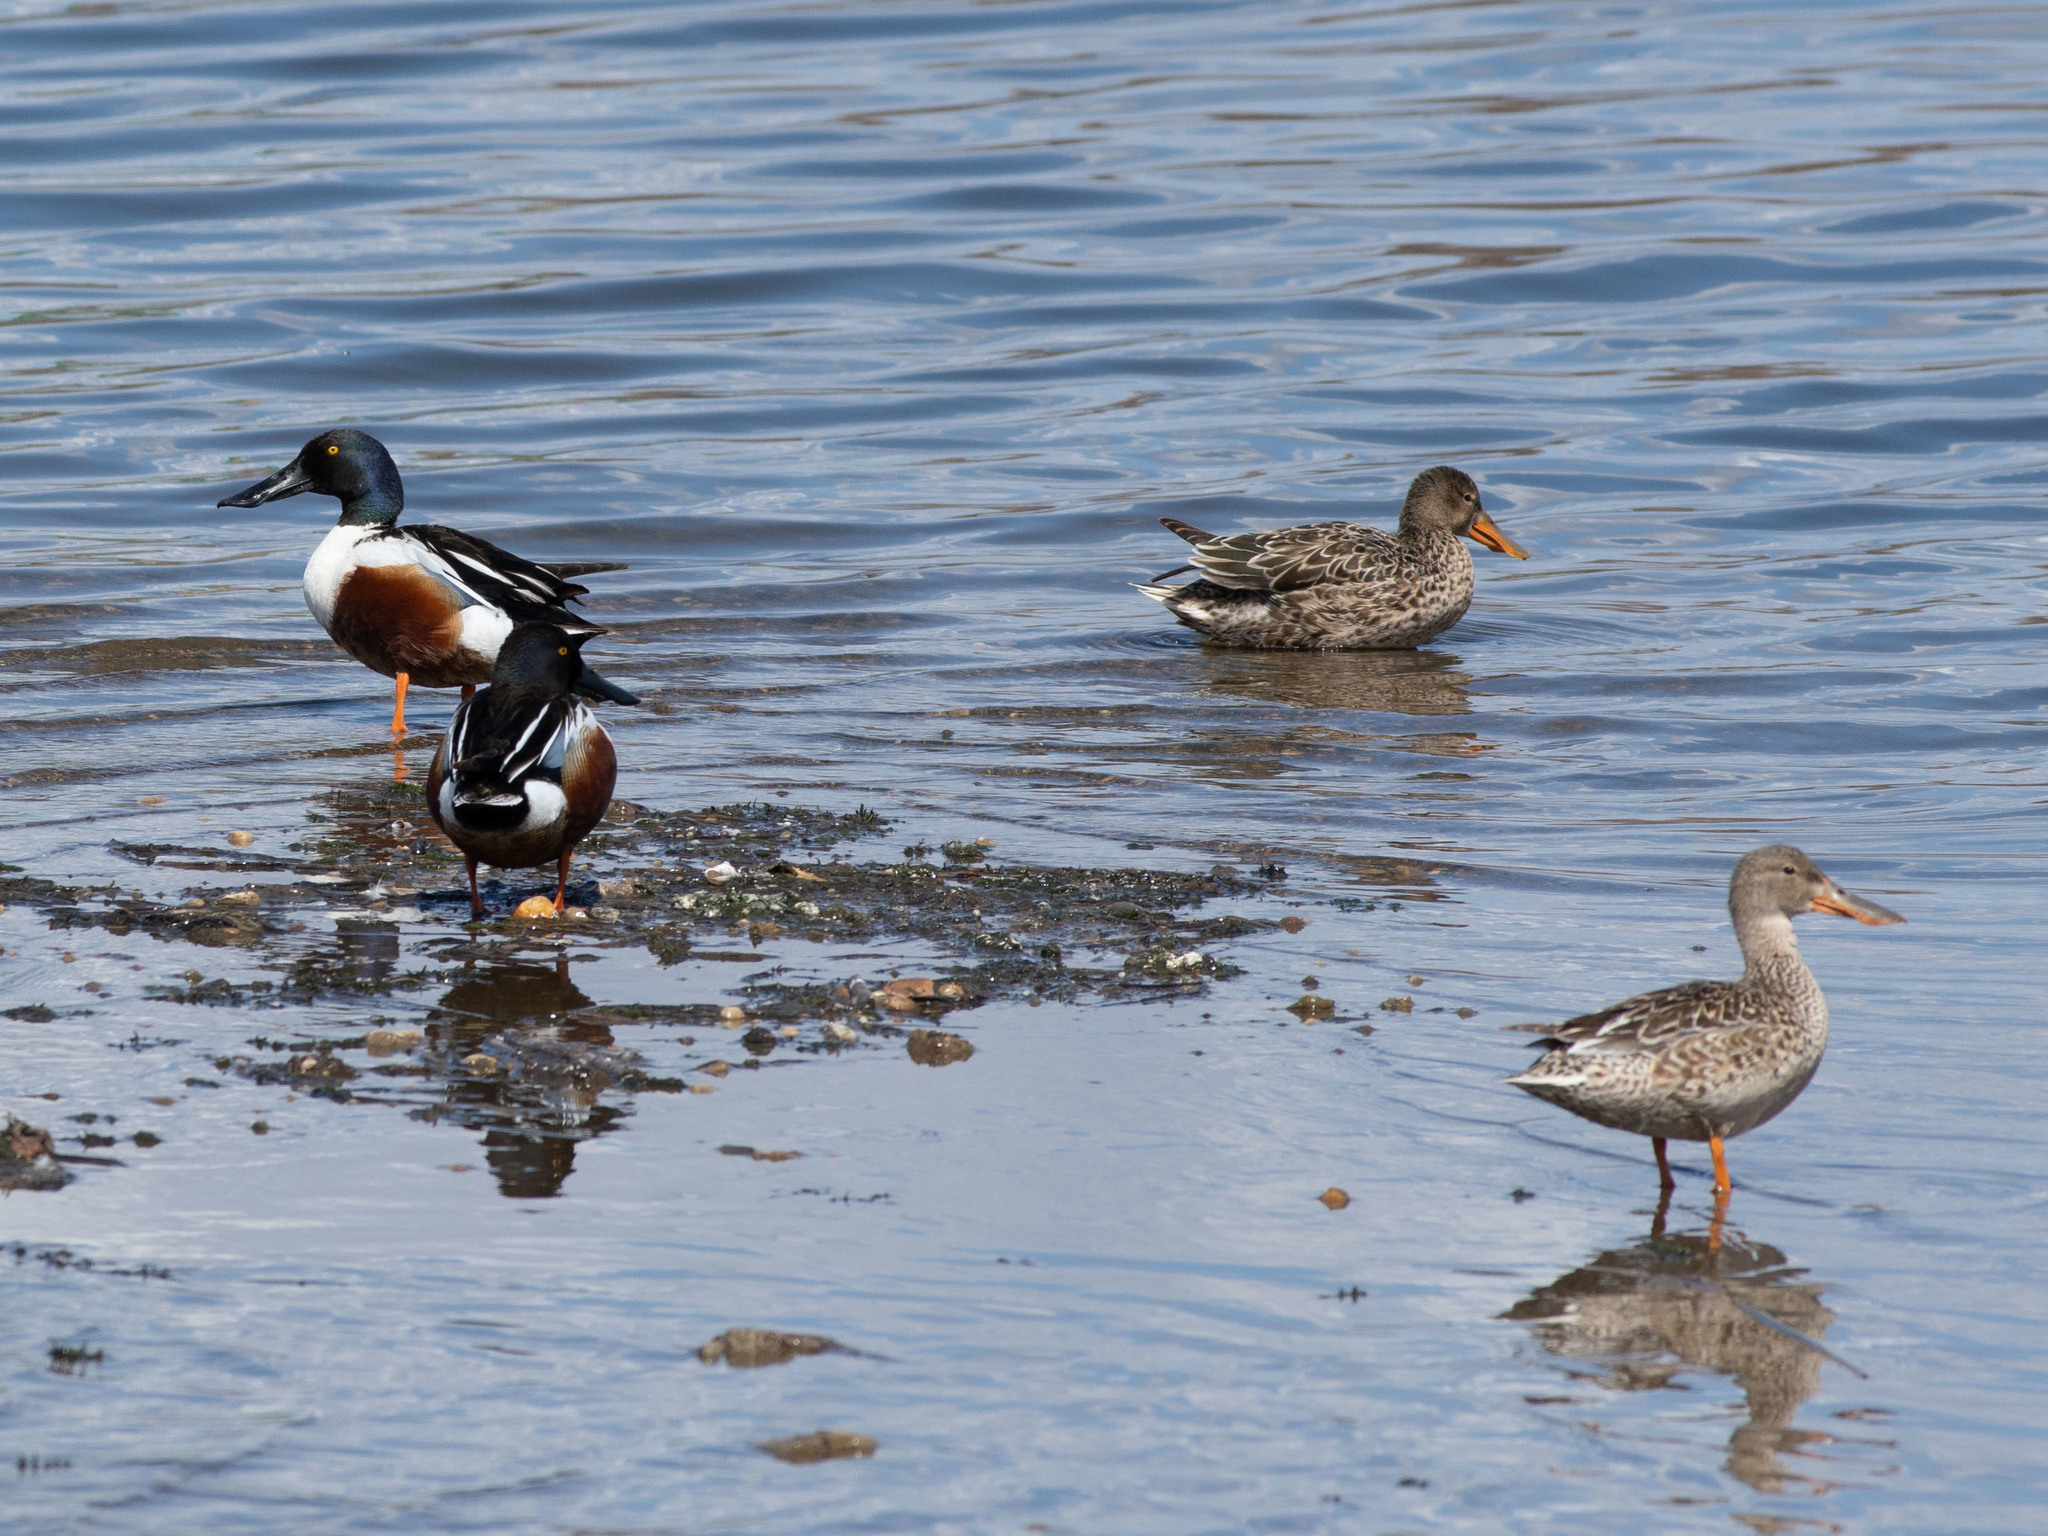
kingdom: Animalia
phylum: Chordata
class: Aves
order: Anseriformes
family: Anatidae
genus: Spatula
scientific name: Spatula clypeata
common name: Northern shoveler
